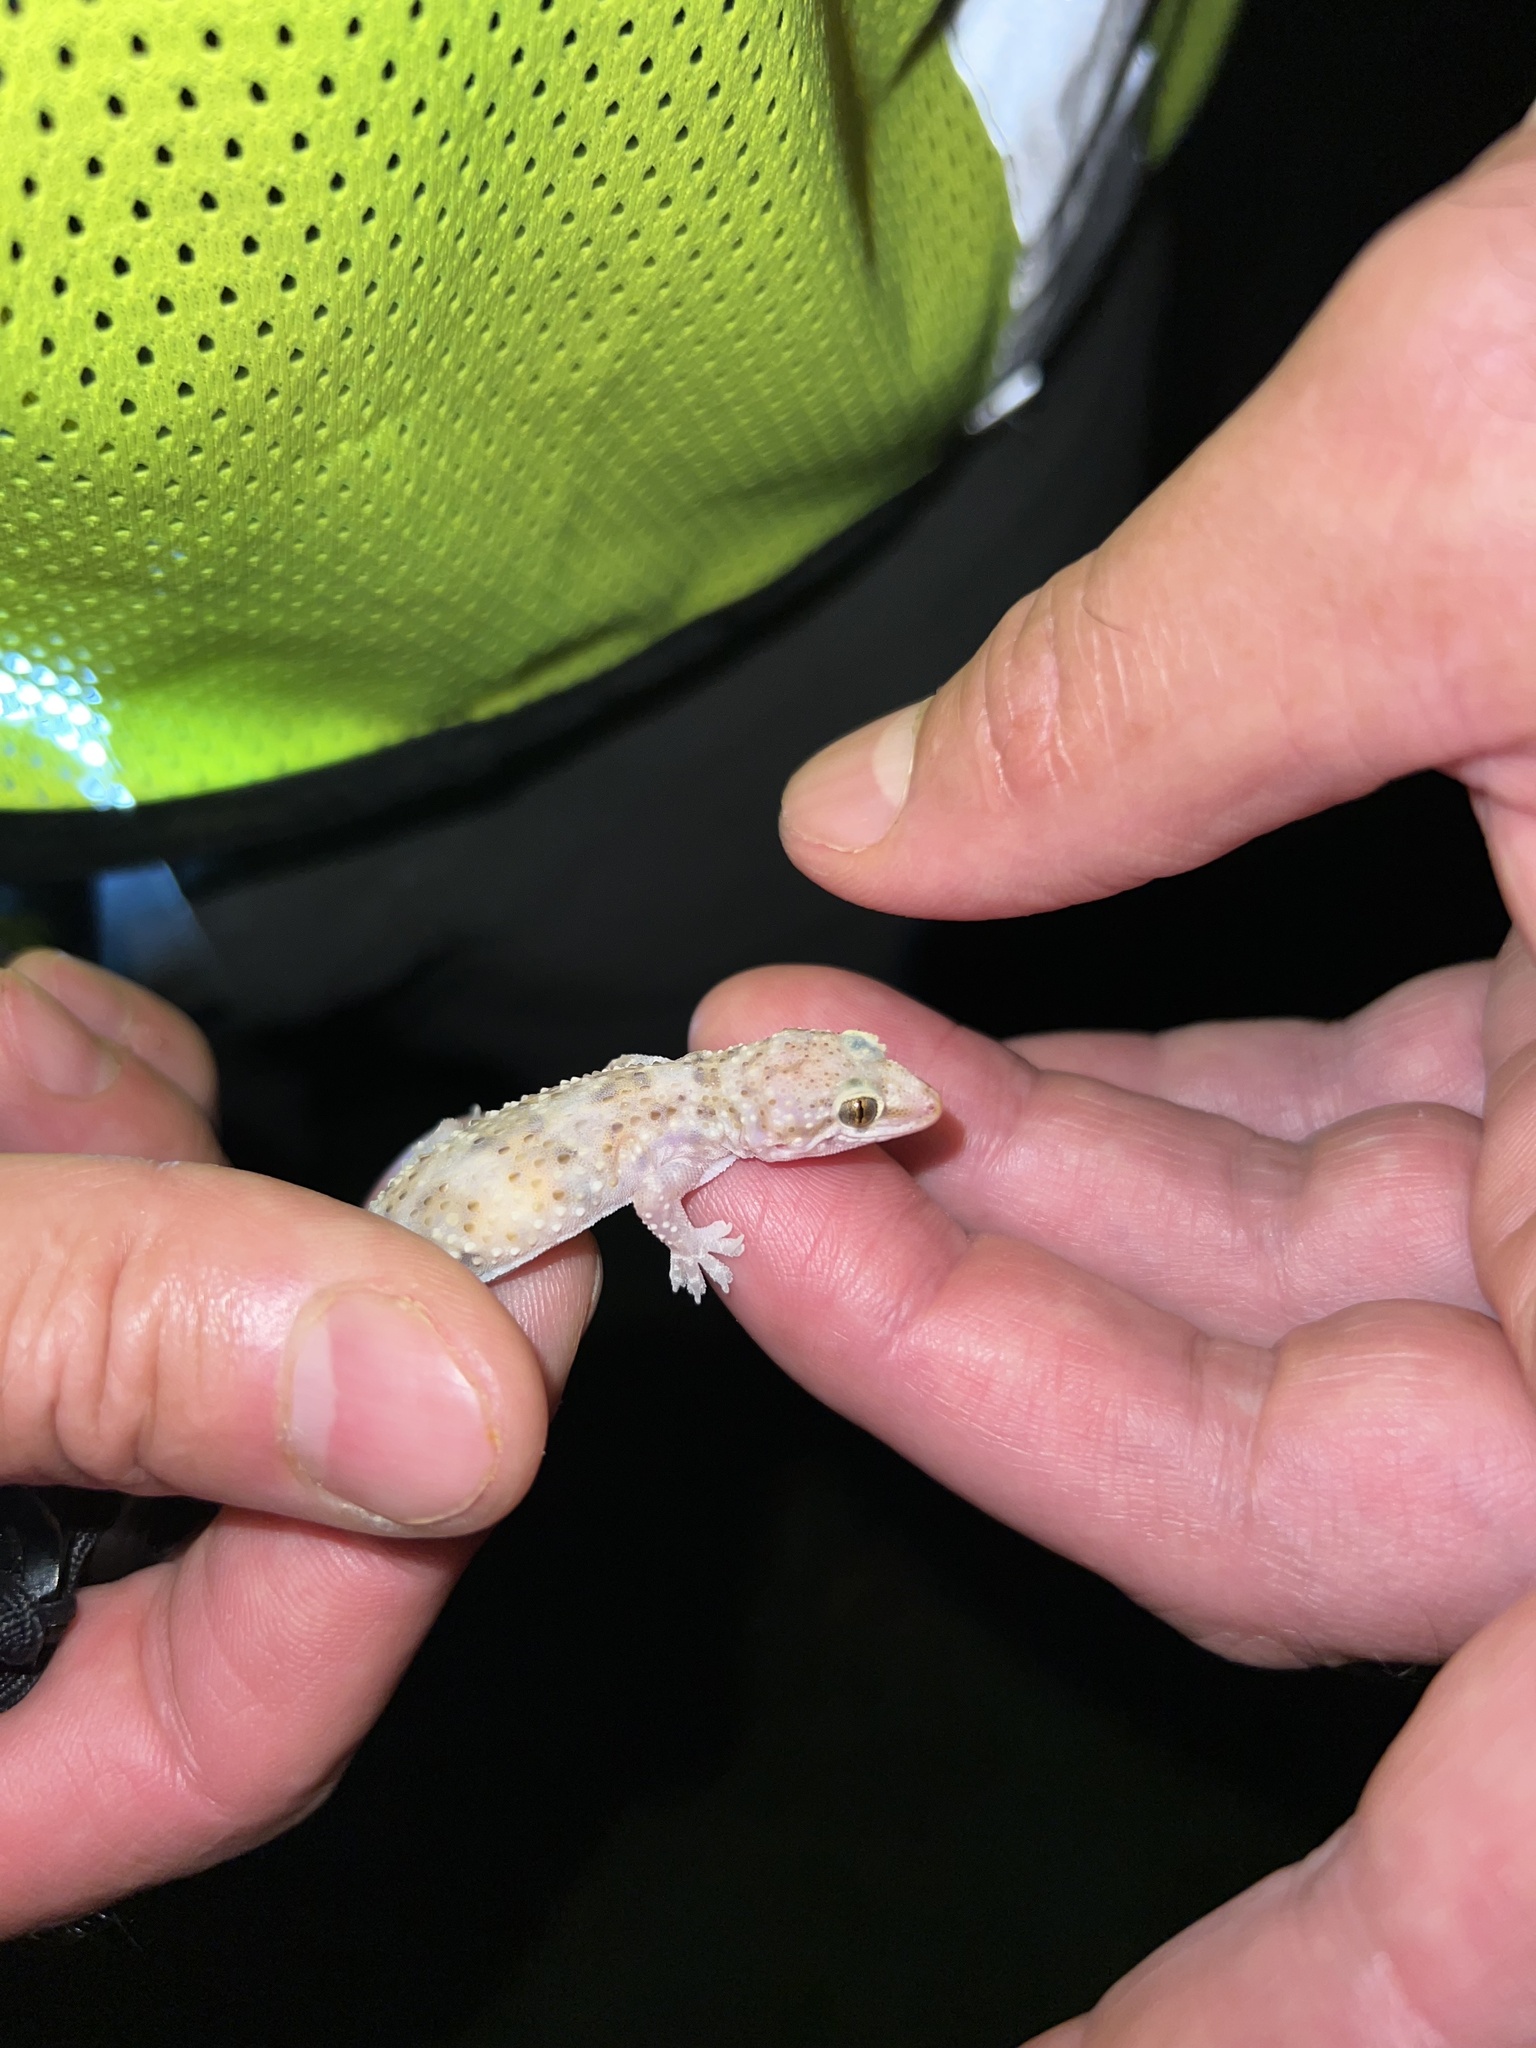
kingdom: Animalia
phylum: Chordata
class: Squamata
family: Gekkonidae
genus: Hemidactylus
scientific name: Hemidactylus turcicus
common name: Turkish gecko
